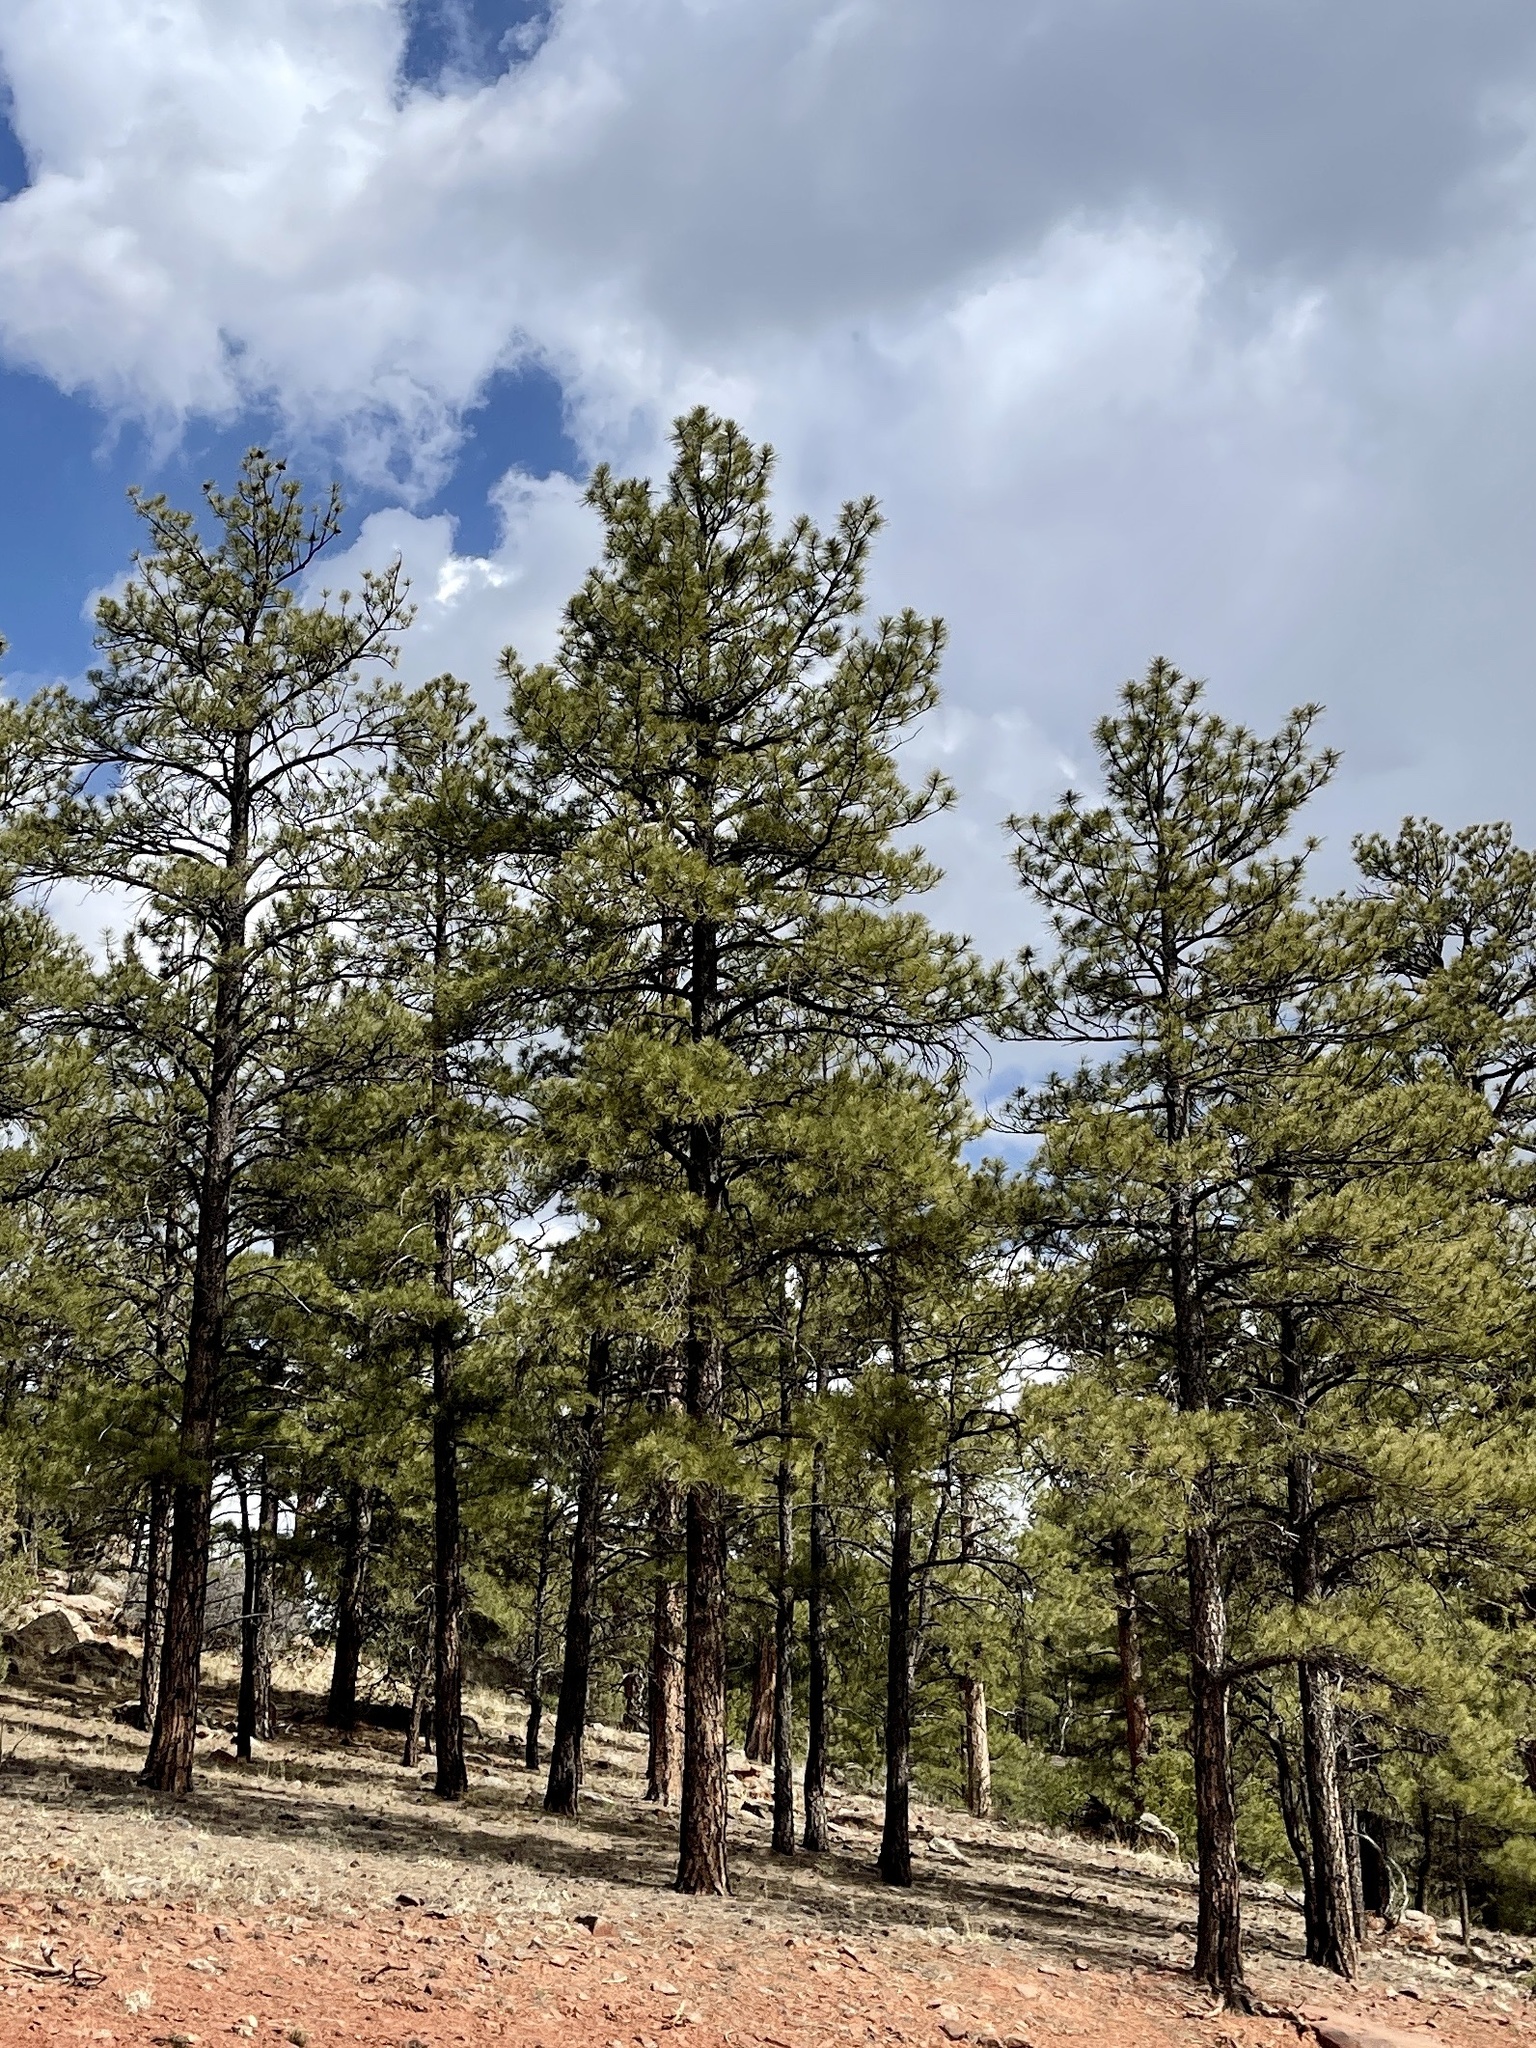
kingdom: Plantae
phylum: Tracheophyta
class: Pinopsida
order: Pinales
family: Pinaceae
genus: Pinus
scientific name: Pinus ponderosa
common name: Western yellow-pine
